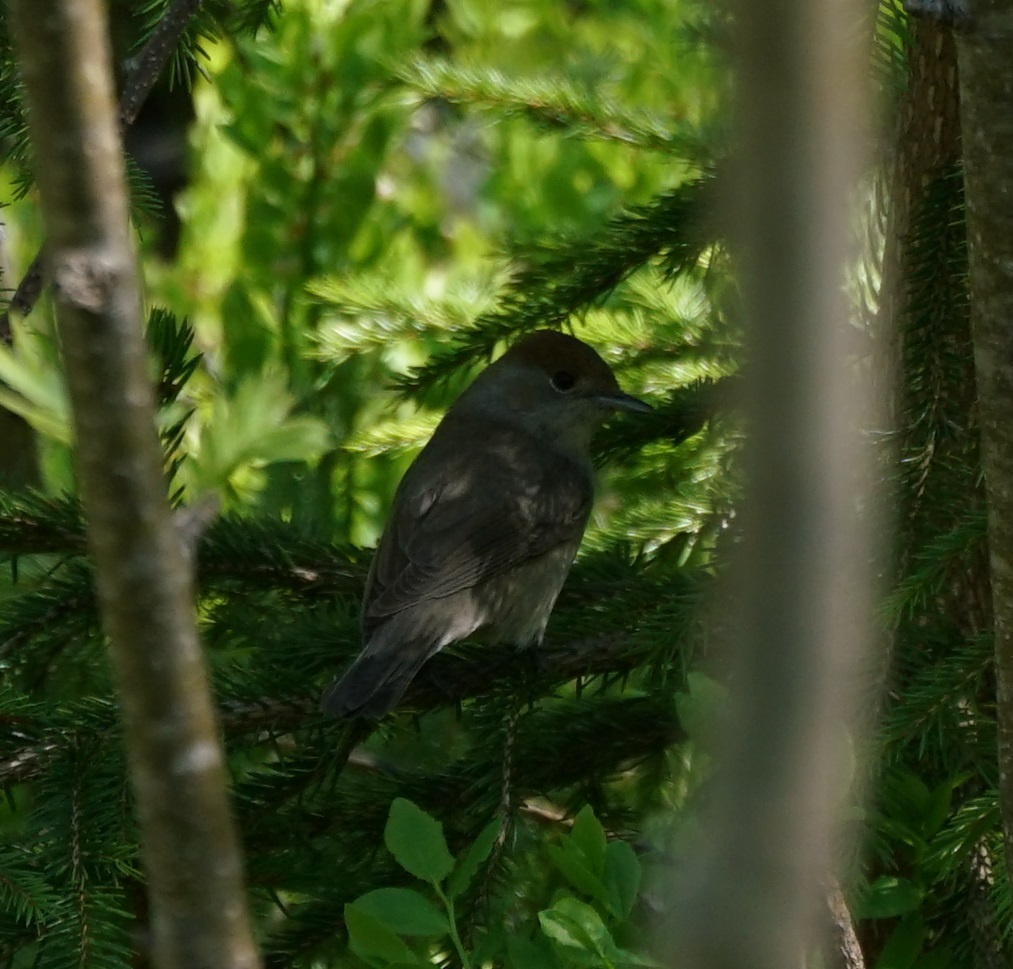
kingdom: Animalia
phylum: Chordata
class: Aves
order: Passeriformes
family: Sylviidae
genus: Sylvia
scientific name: Sylvia atricapilla
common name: Eurasian blackcap
